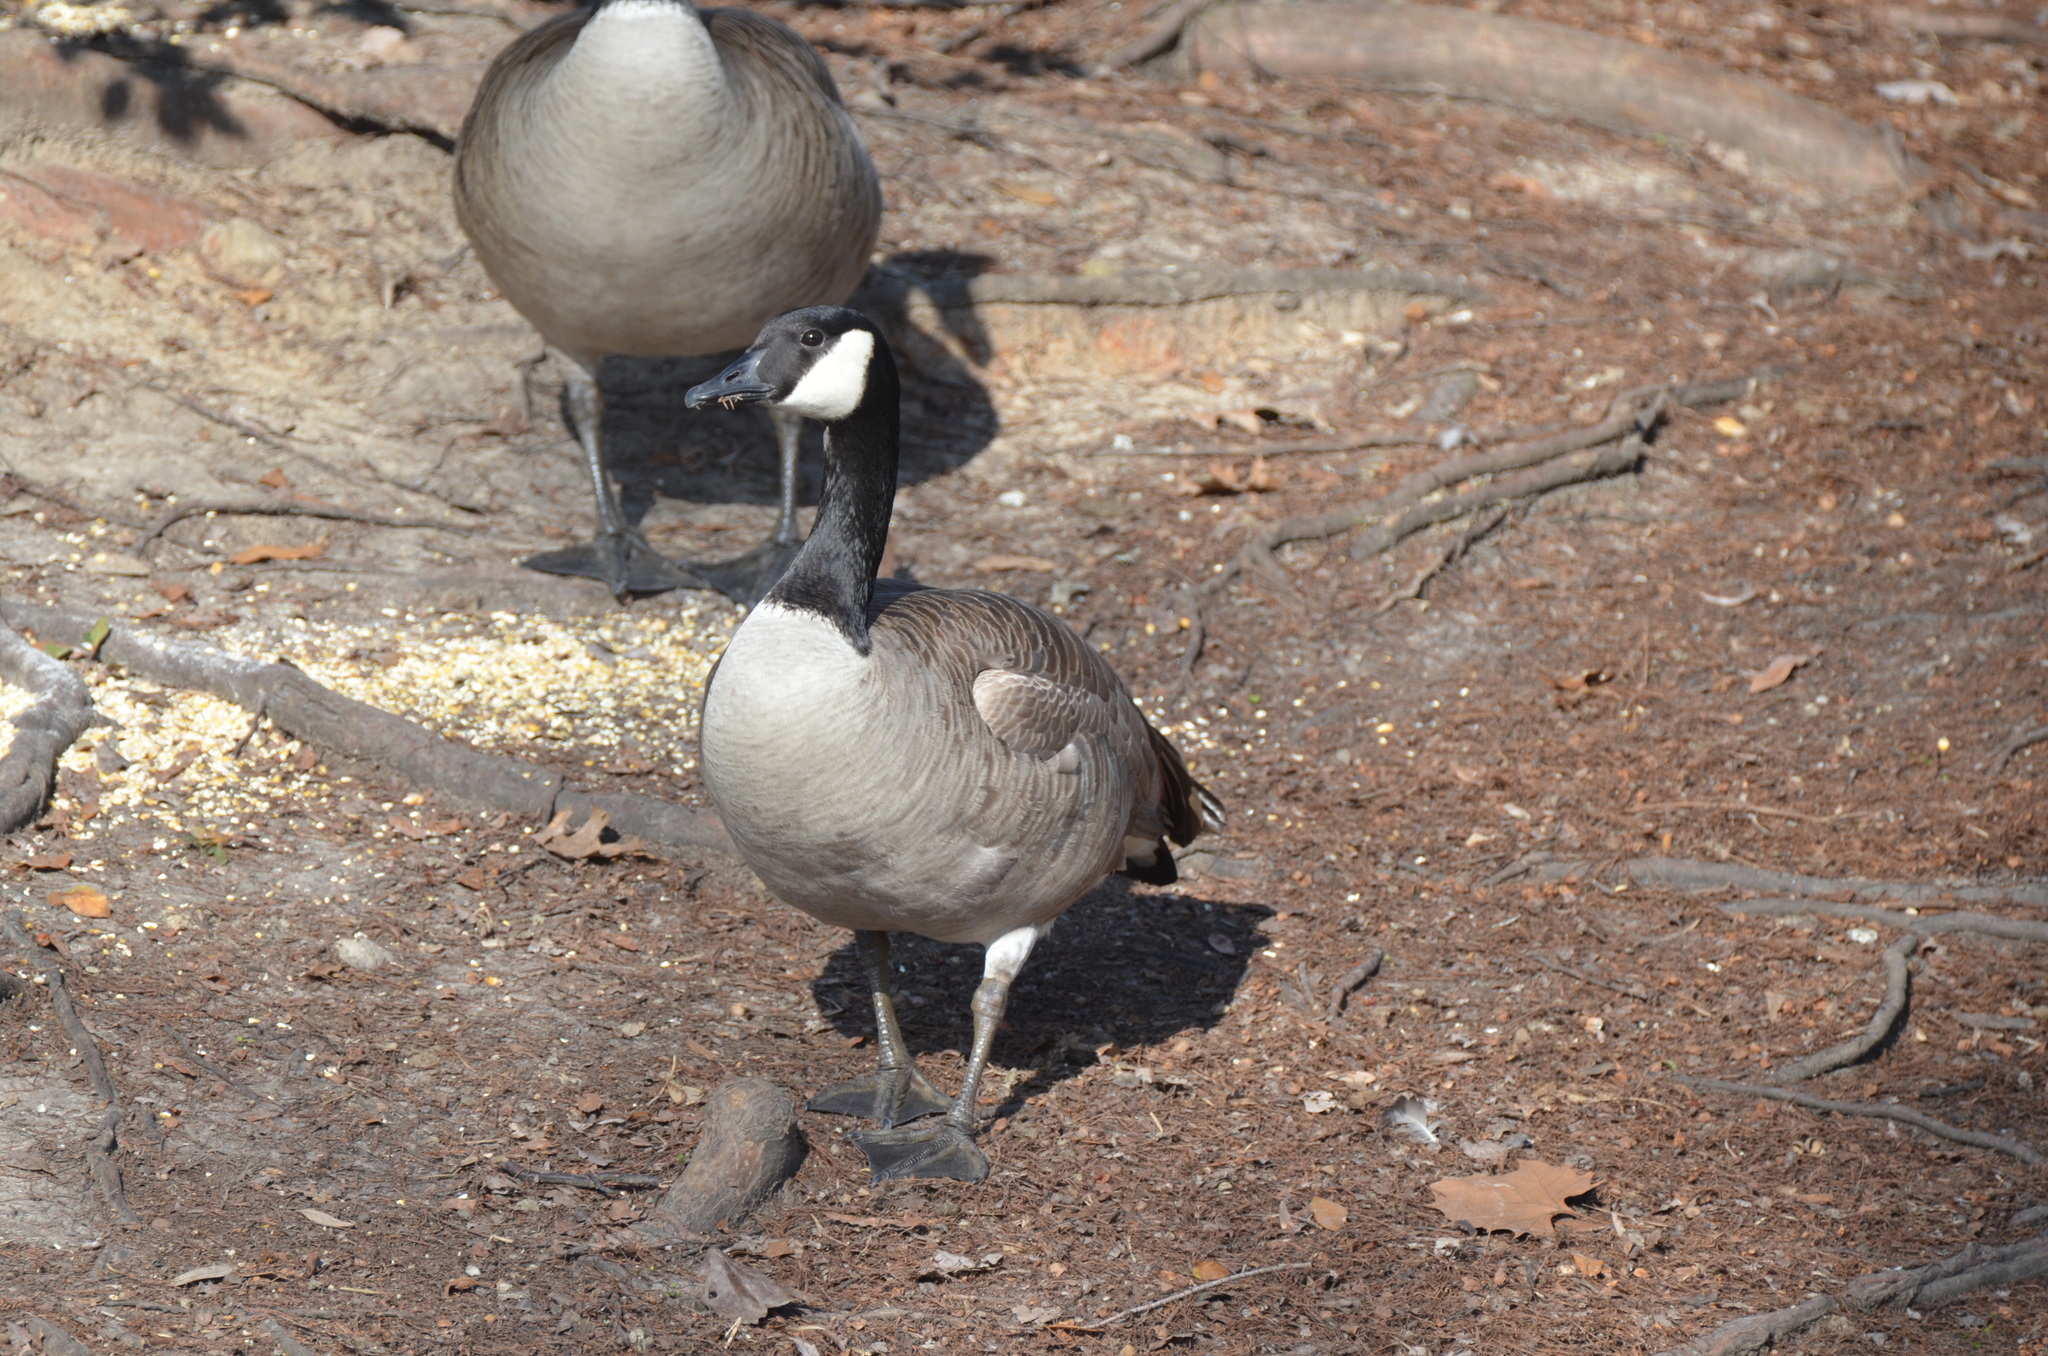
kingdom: Animalia
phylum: Chordata
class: Aves
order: Anseriformes
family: Anatidae
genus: Branta
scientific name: Branta canadensis
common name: Canada goose
